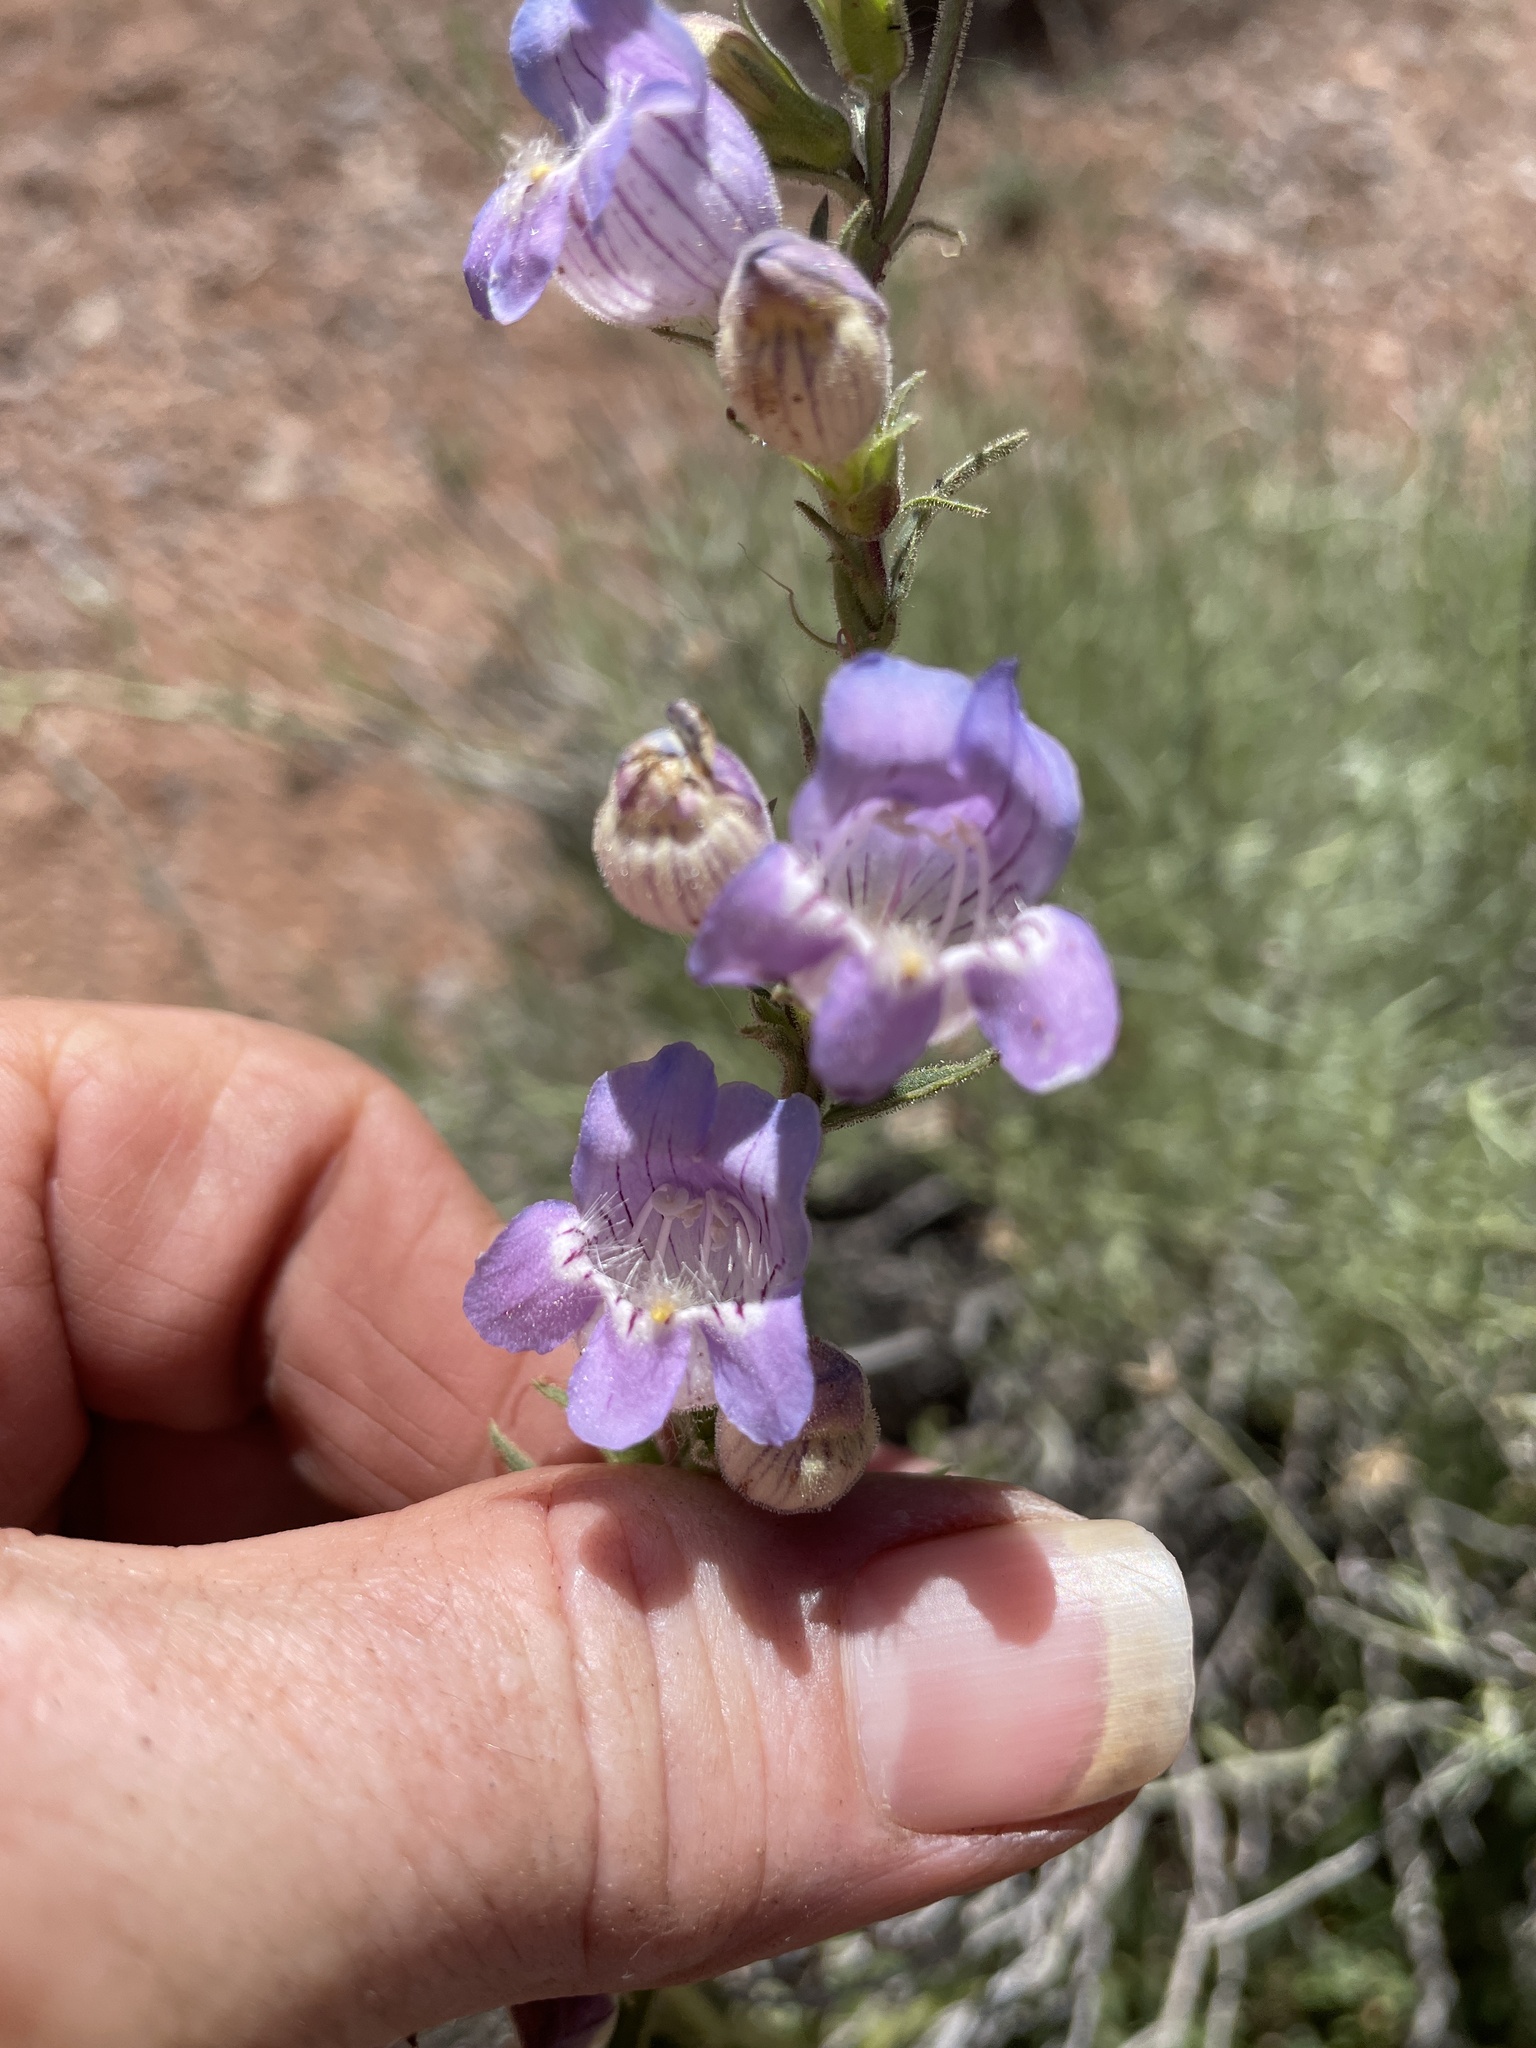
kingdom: Plantae
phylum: Tracheophyta
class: Magnoliopsida
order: Lamiales
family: Plantaginaceae
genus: Penstemon
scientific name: Penstemon jamesii
